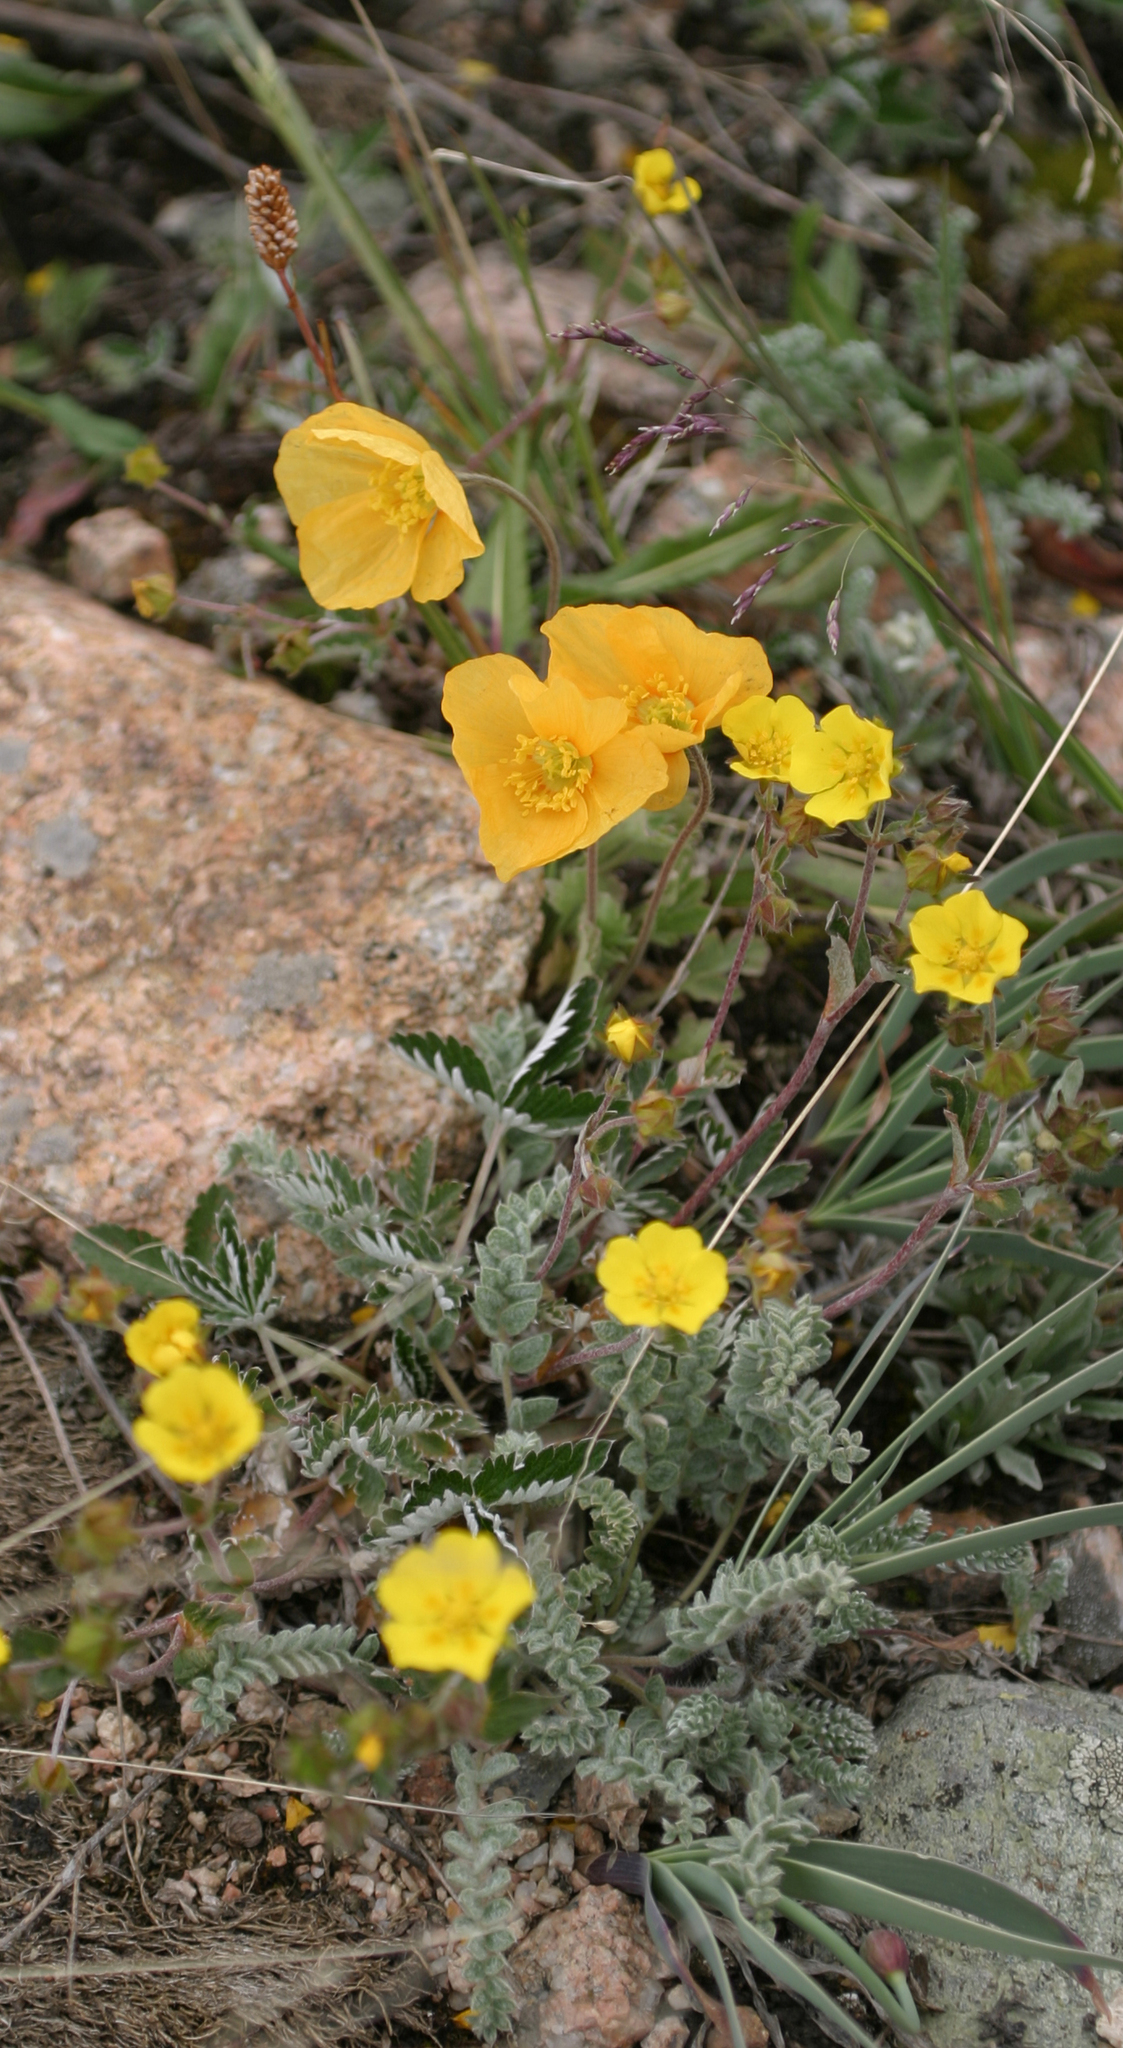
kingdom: Plantae
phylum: Tracheophyta
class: Magnoliopsida
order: Rosales
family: Rosaceae
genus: Potentilla
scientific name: Potentilla nervosa
